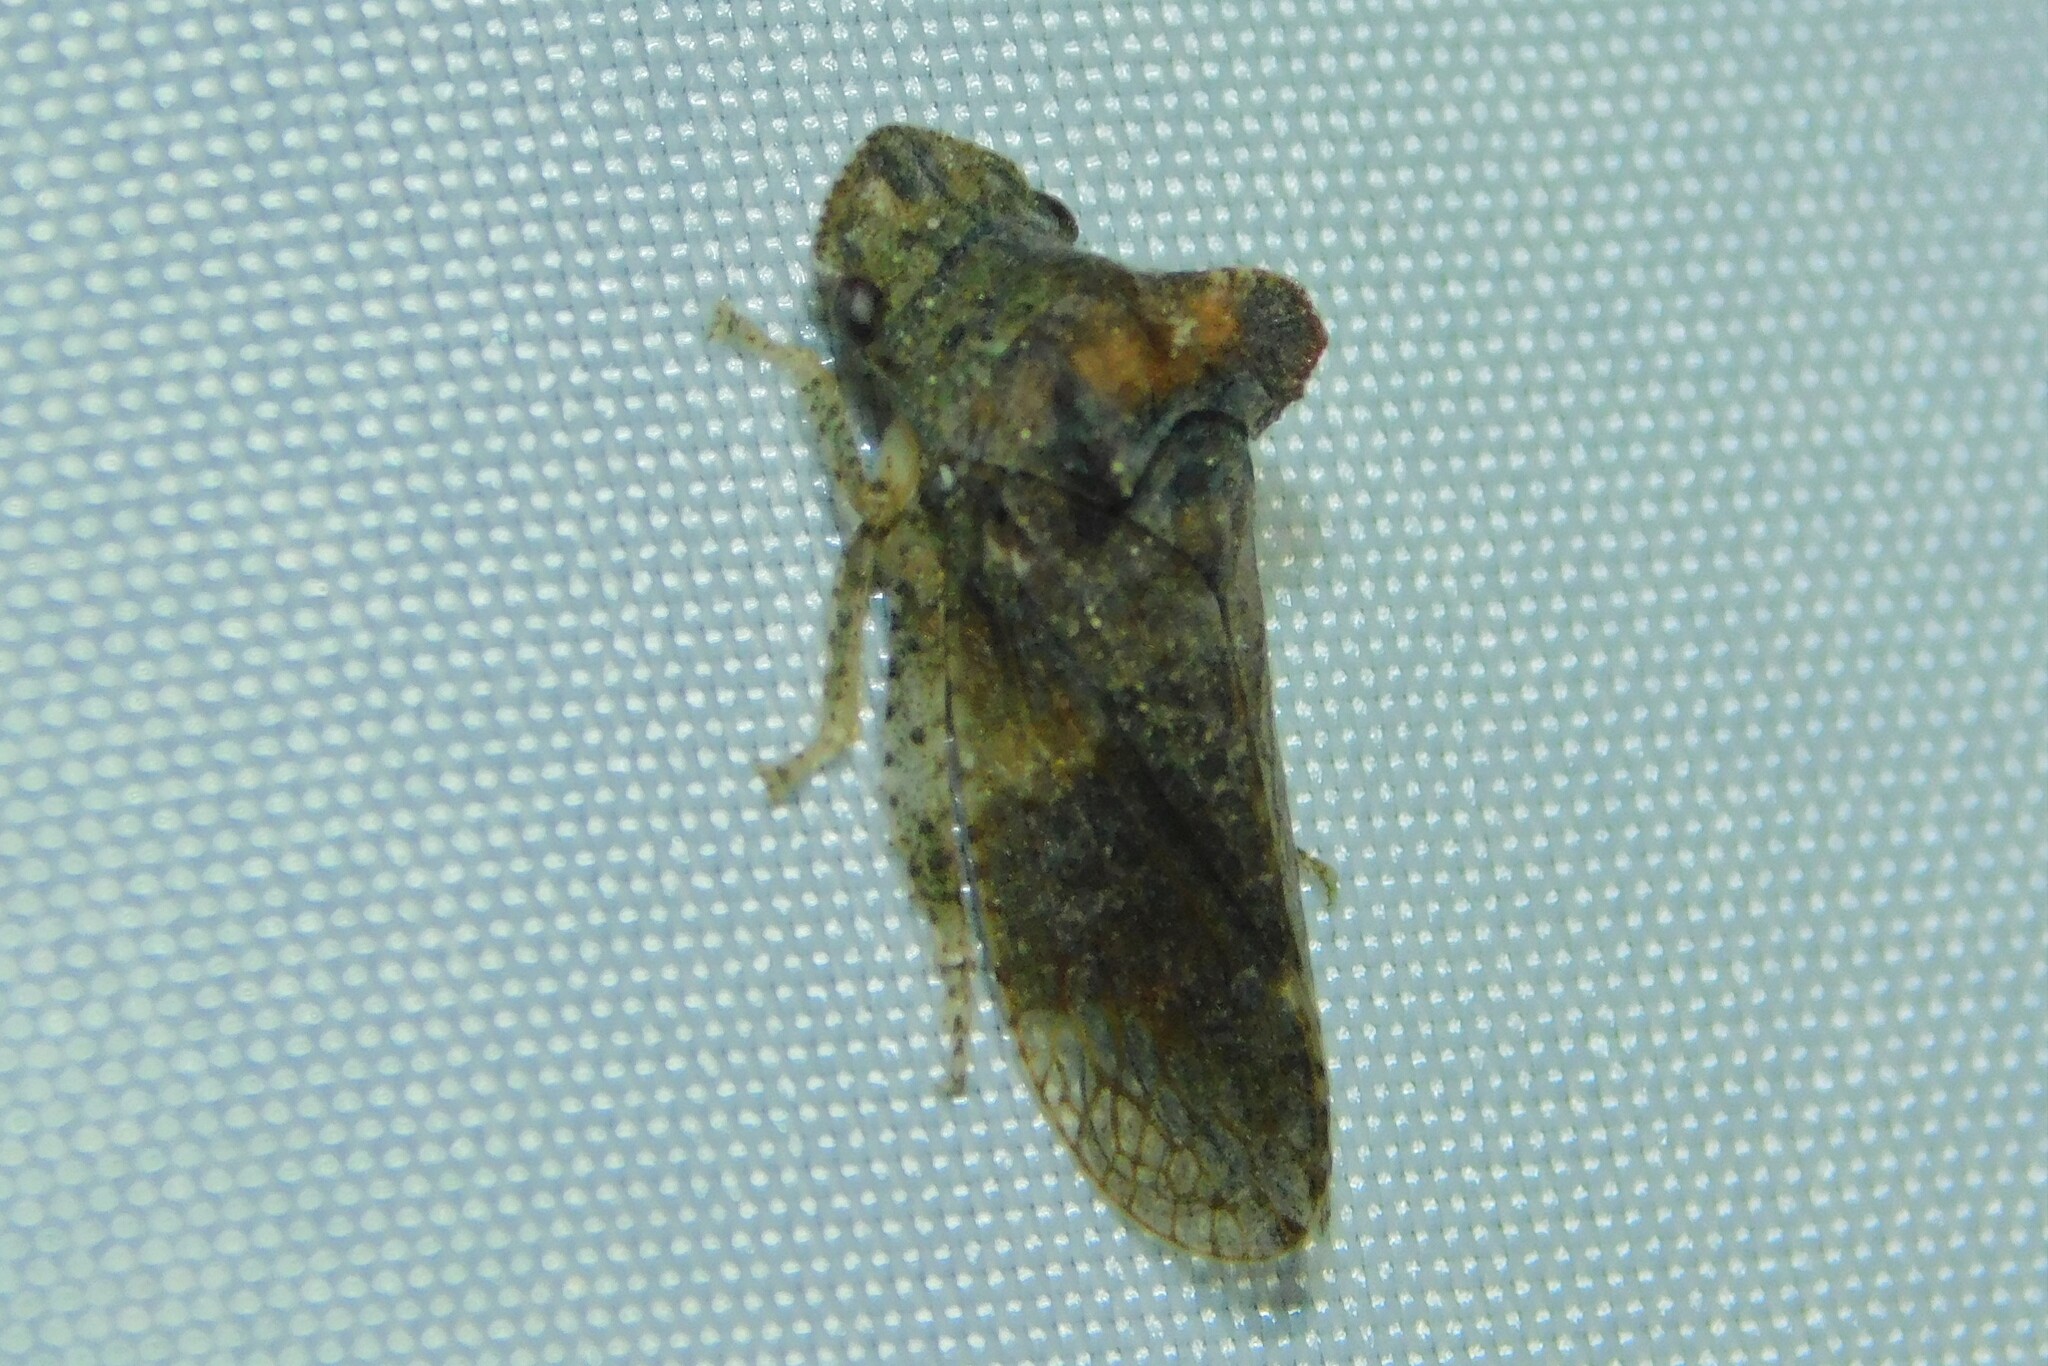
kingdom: Animalia
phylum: Arthropoda
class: Insecta
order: Hemiptera
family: Cicadellidae
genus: Ledra
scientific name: Ledra aurita
